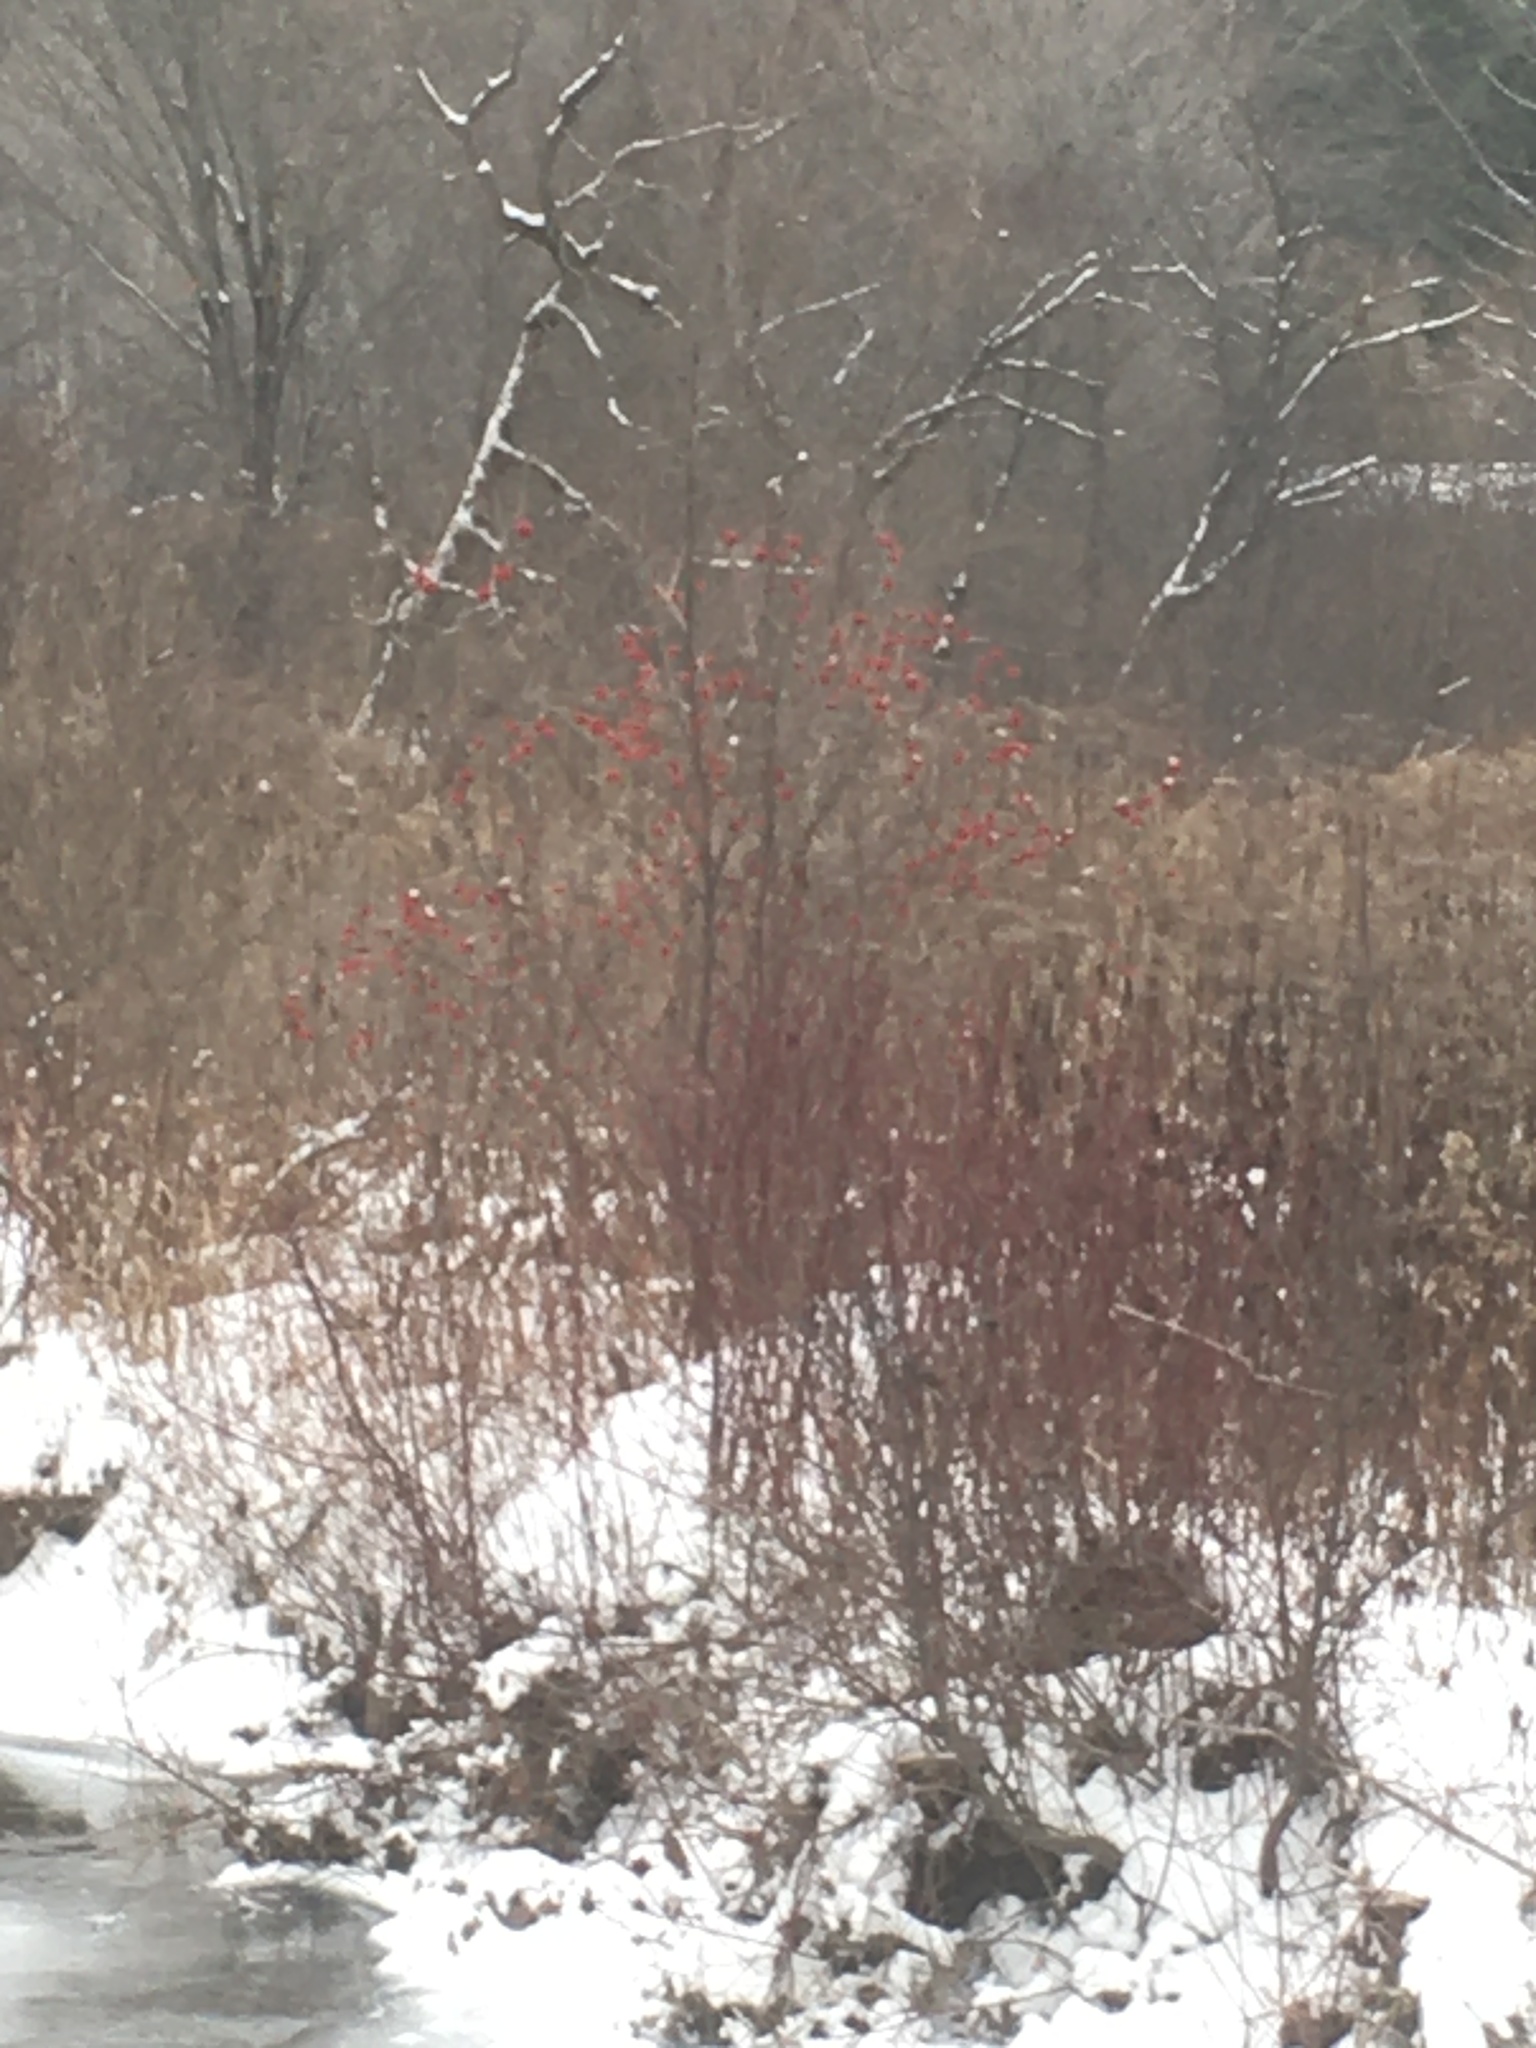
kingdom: Plantae
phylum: Tracheophyta
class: Magnoliopsida
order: Dipsacales
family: Viburnaceae
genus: Viburnum
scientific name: Viburnum opulus
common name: Guelder-rose
